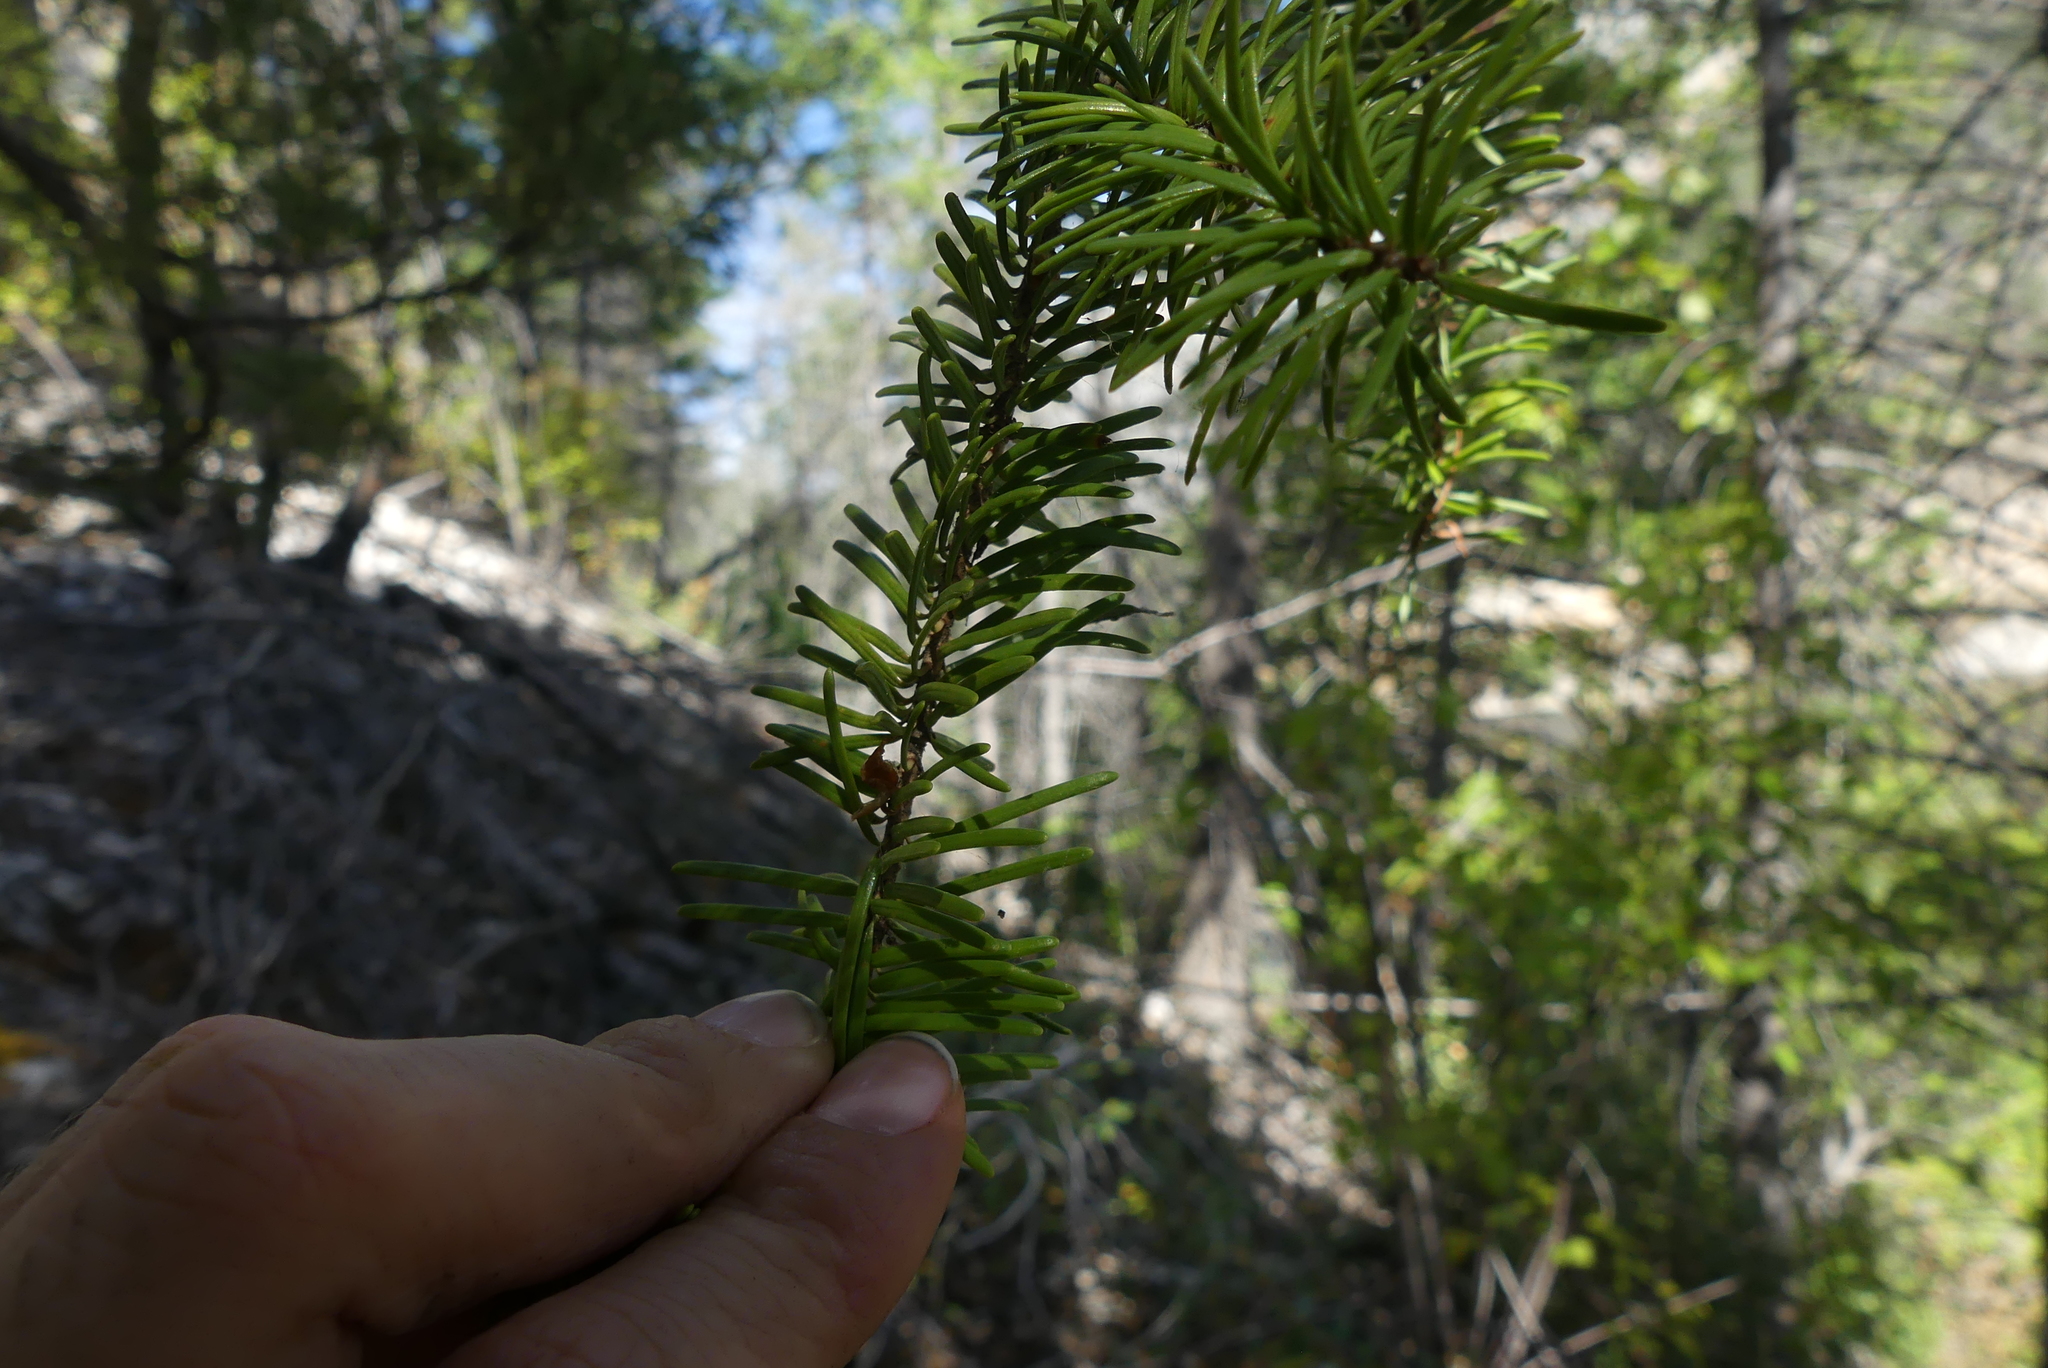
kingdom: Plantae
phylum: Tracheophyta
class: Pinopsida
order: Pinales
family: Pinaceae
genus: Pseudotsuga
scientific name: Pseudotsuga menziesii
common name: Douglas fir
